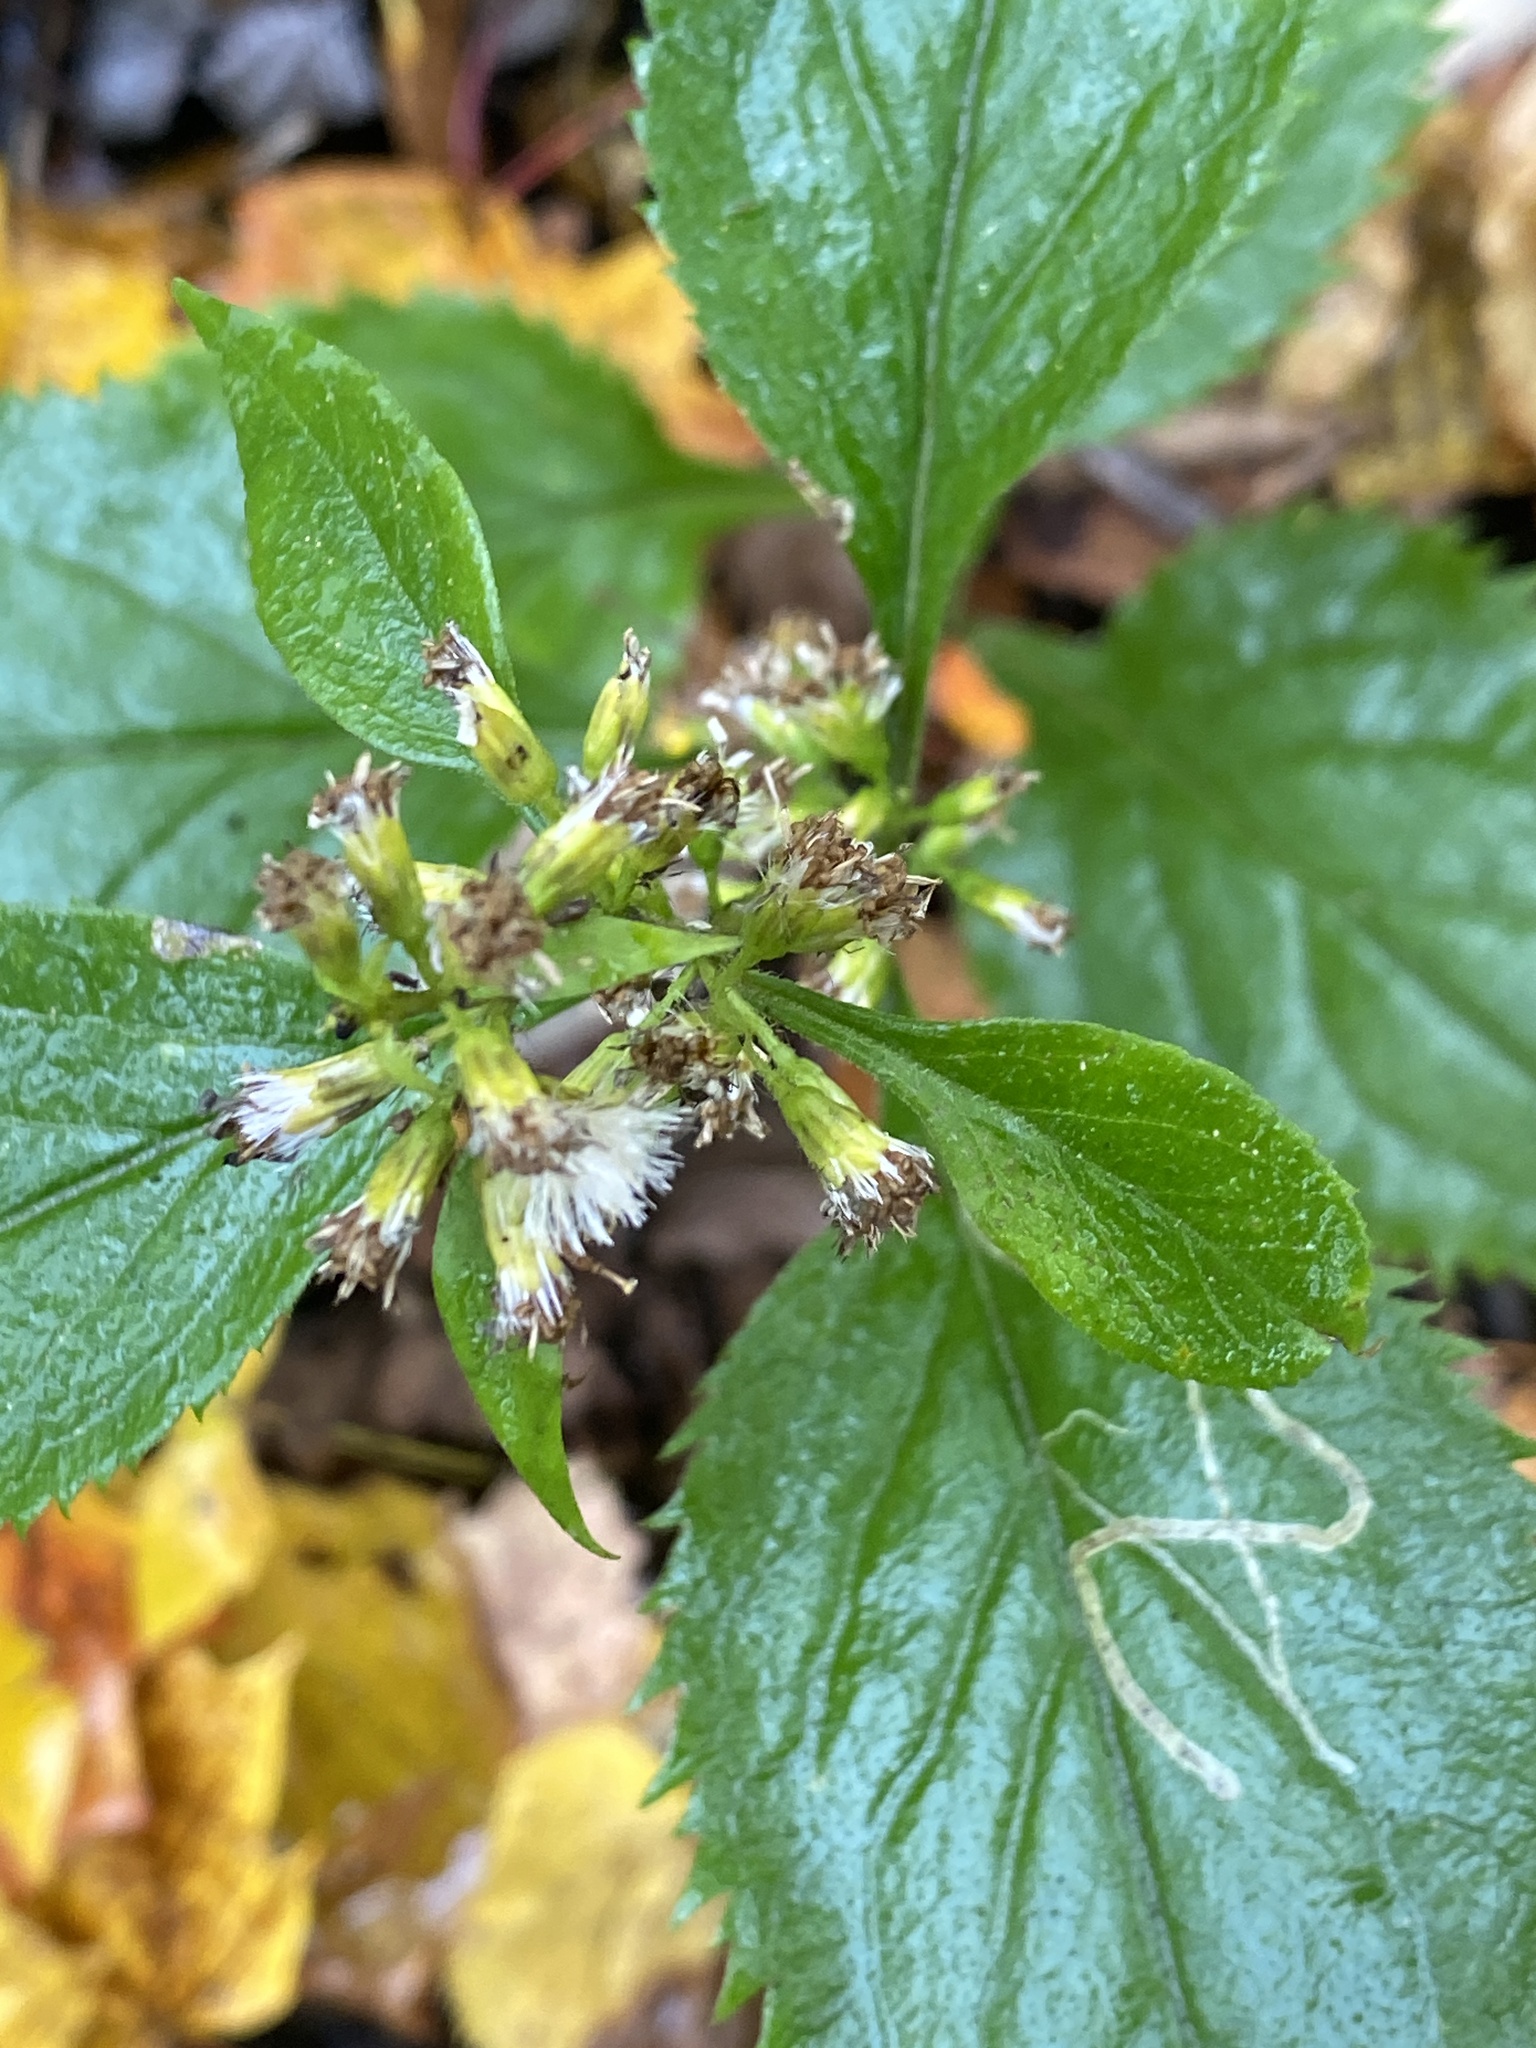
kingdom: Plantae
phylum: Tracheophyta
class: Magnoliopsida
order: Asterales
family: Asteraceae
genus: Solidago
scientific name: Solidago flexicaulis
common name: Zig-zag goldenrod
